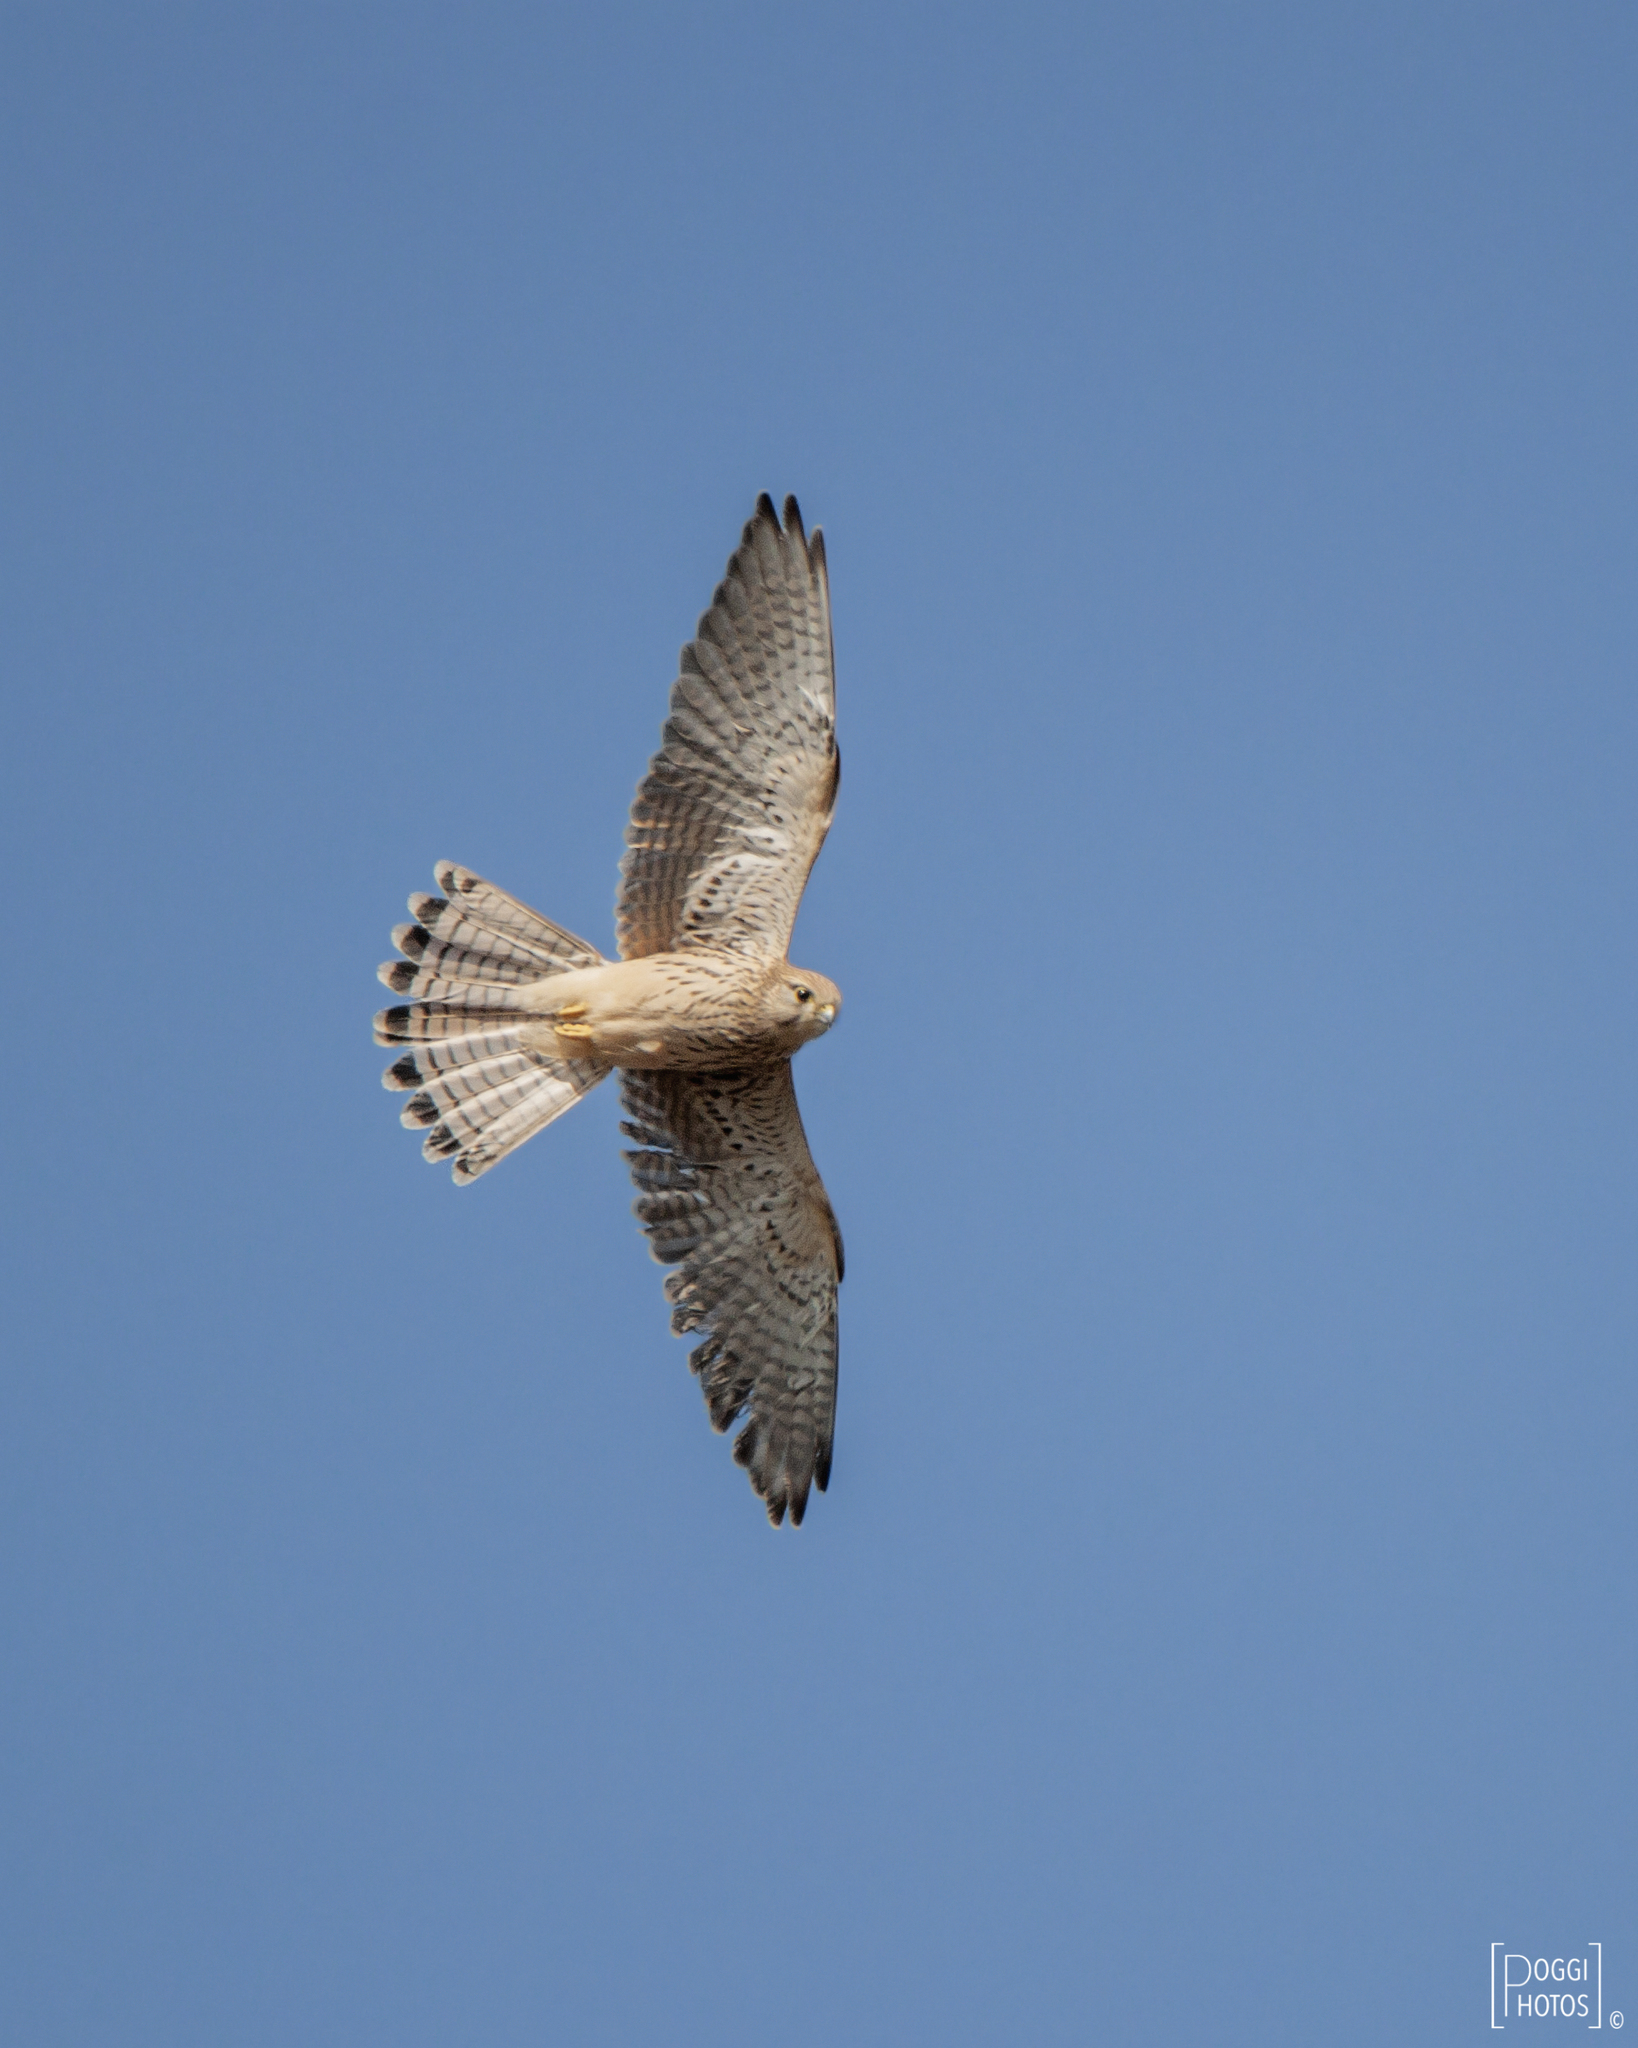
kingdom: Animalia
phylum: Chordata
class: Aves
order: Falconiformes
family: Falconidae
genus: Falco
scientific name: Falco tinnunculus
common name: Common kestrel
